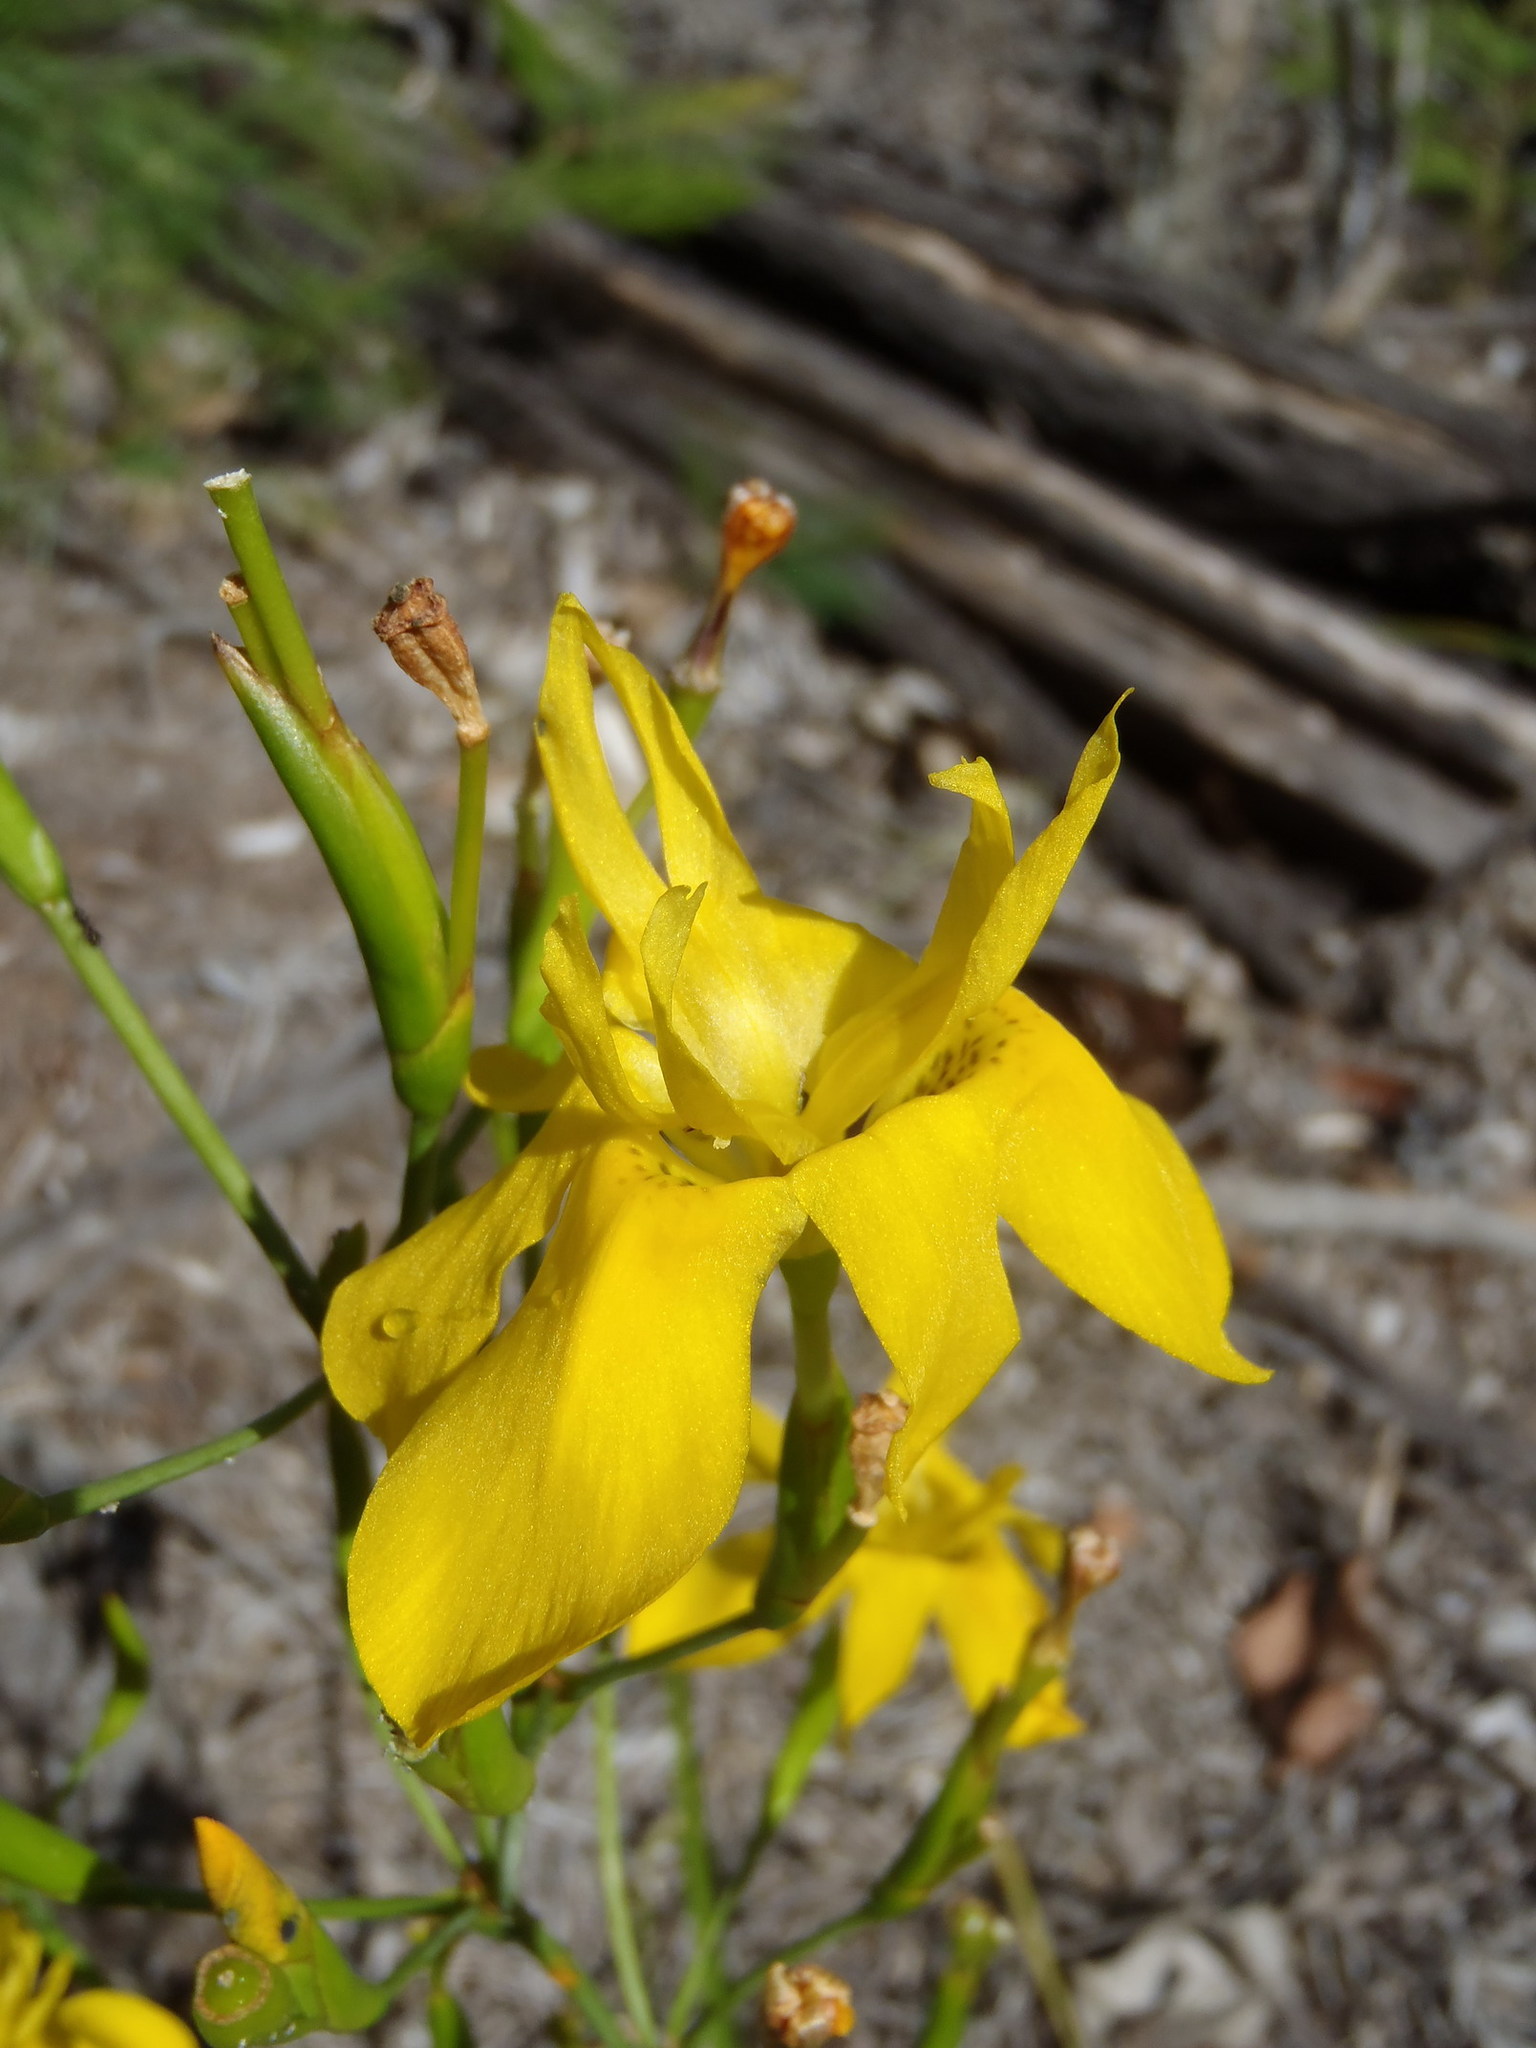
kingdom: Plantae
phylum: Tracheophyta
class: Liliopsida
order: Asparagales
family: Iridaceae
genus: Moraea
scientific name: Moraea ramosissima
